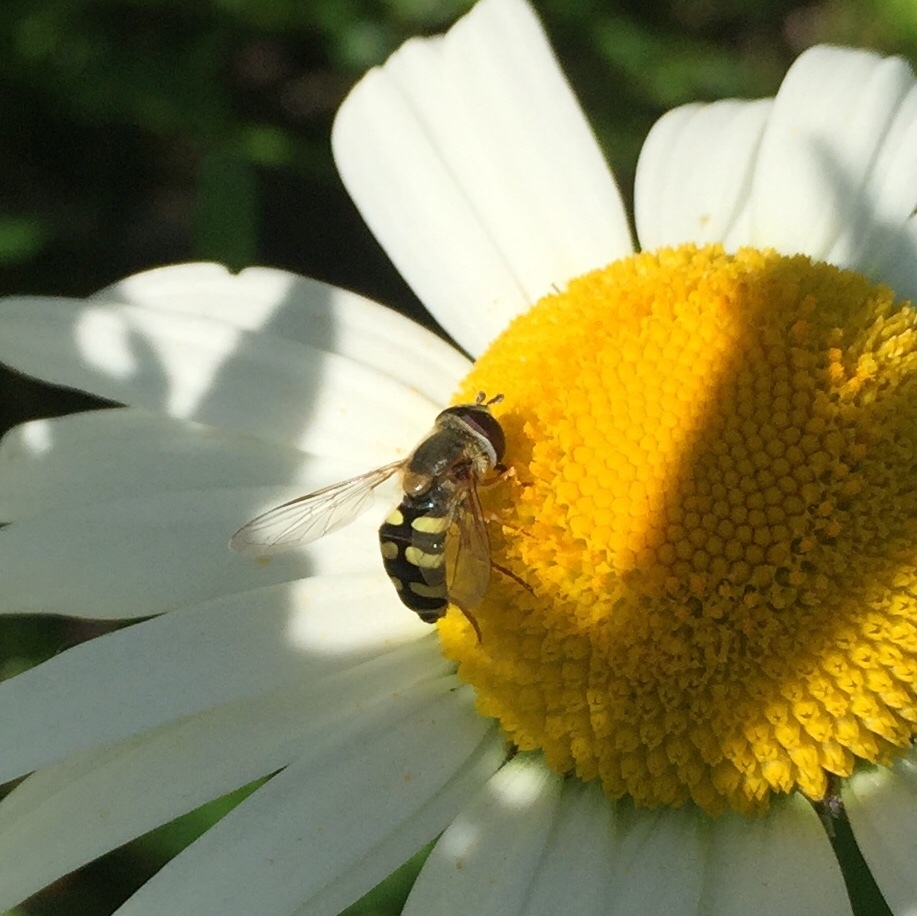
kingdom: Animalia
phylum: Arthropoda
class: Insecta
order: Diptera
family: Syrphidae
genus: Eupeodes
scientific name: Eupeodes corollae
